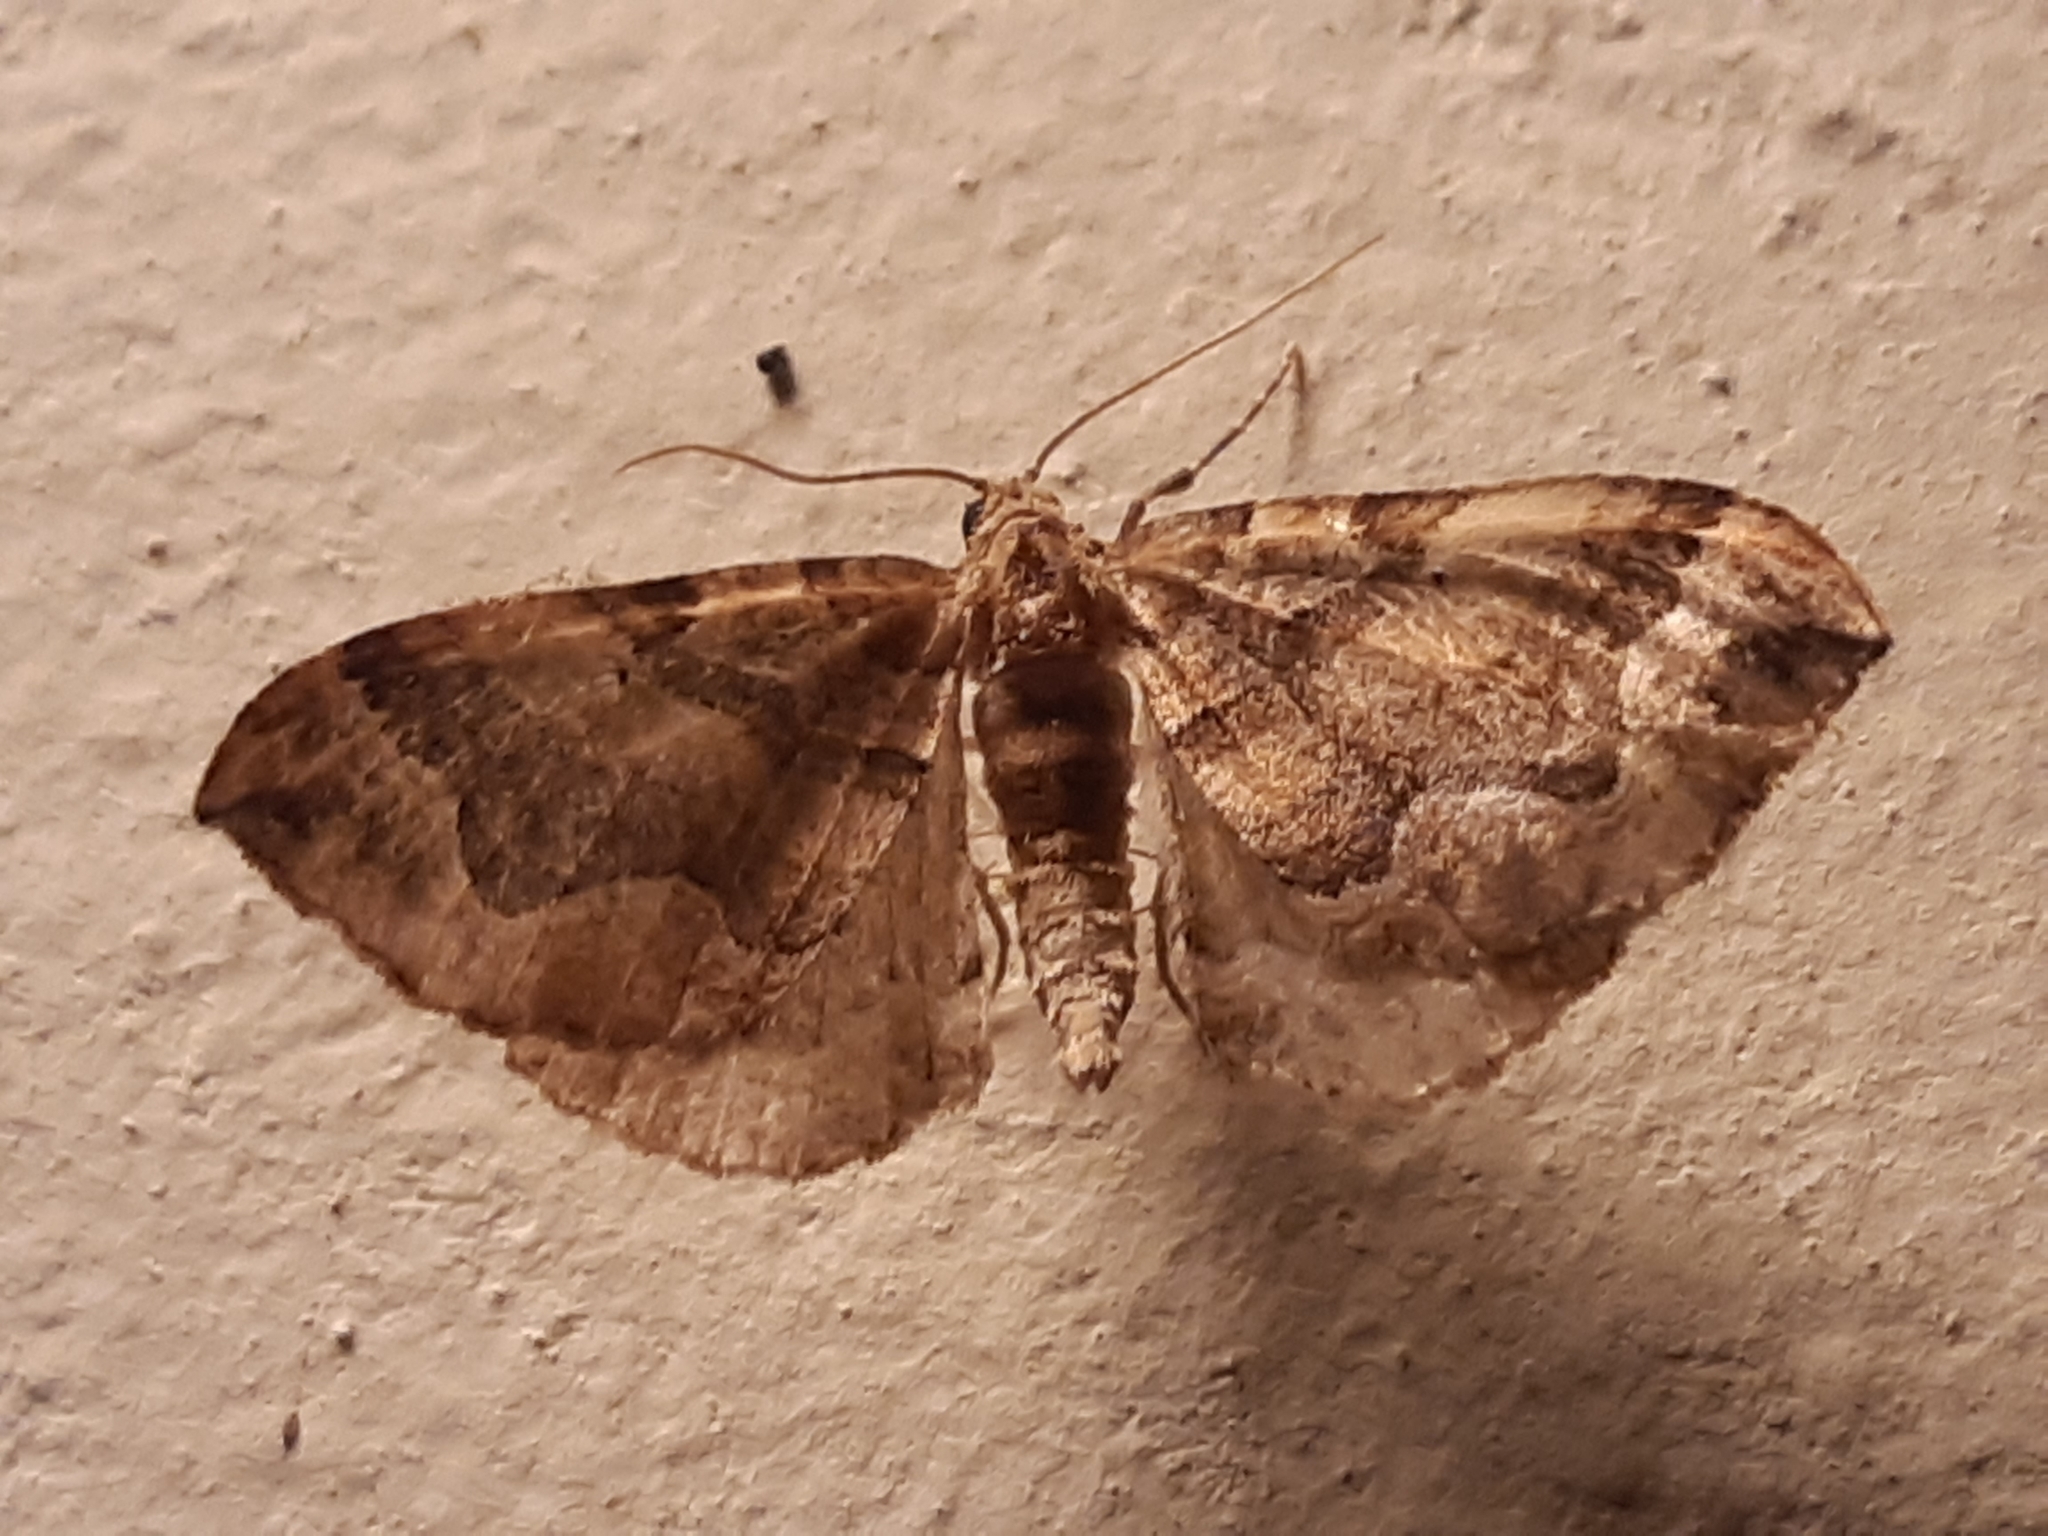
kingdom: Animalia
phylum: Arthropoda
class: Insecta
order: Lepidoptera
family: Geometridae
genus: Pelurga
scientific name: Pelurga comitata
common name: Dark spinach
